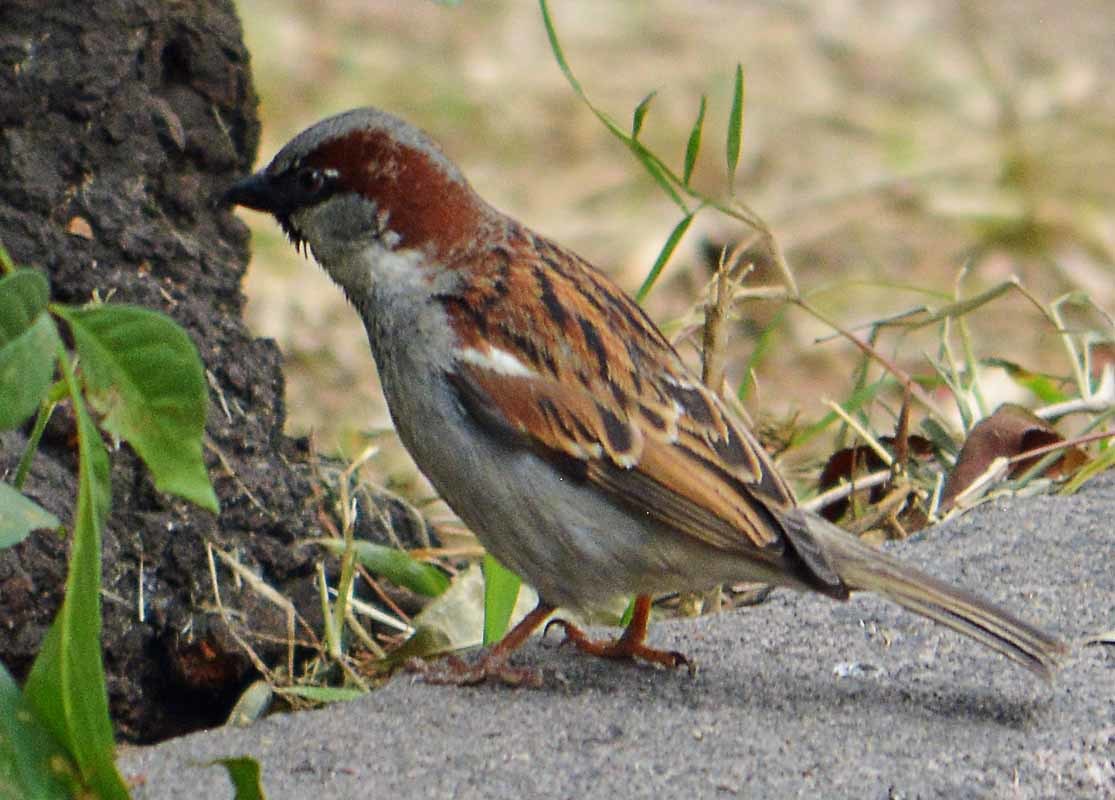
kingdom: Animalia
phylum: Chordata
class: Aves
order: Passeriformes
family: Passeridae
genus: Passer
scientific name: Passer domesticus
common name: House sparrow
